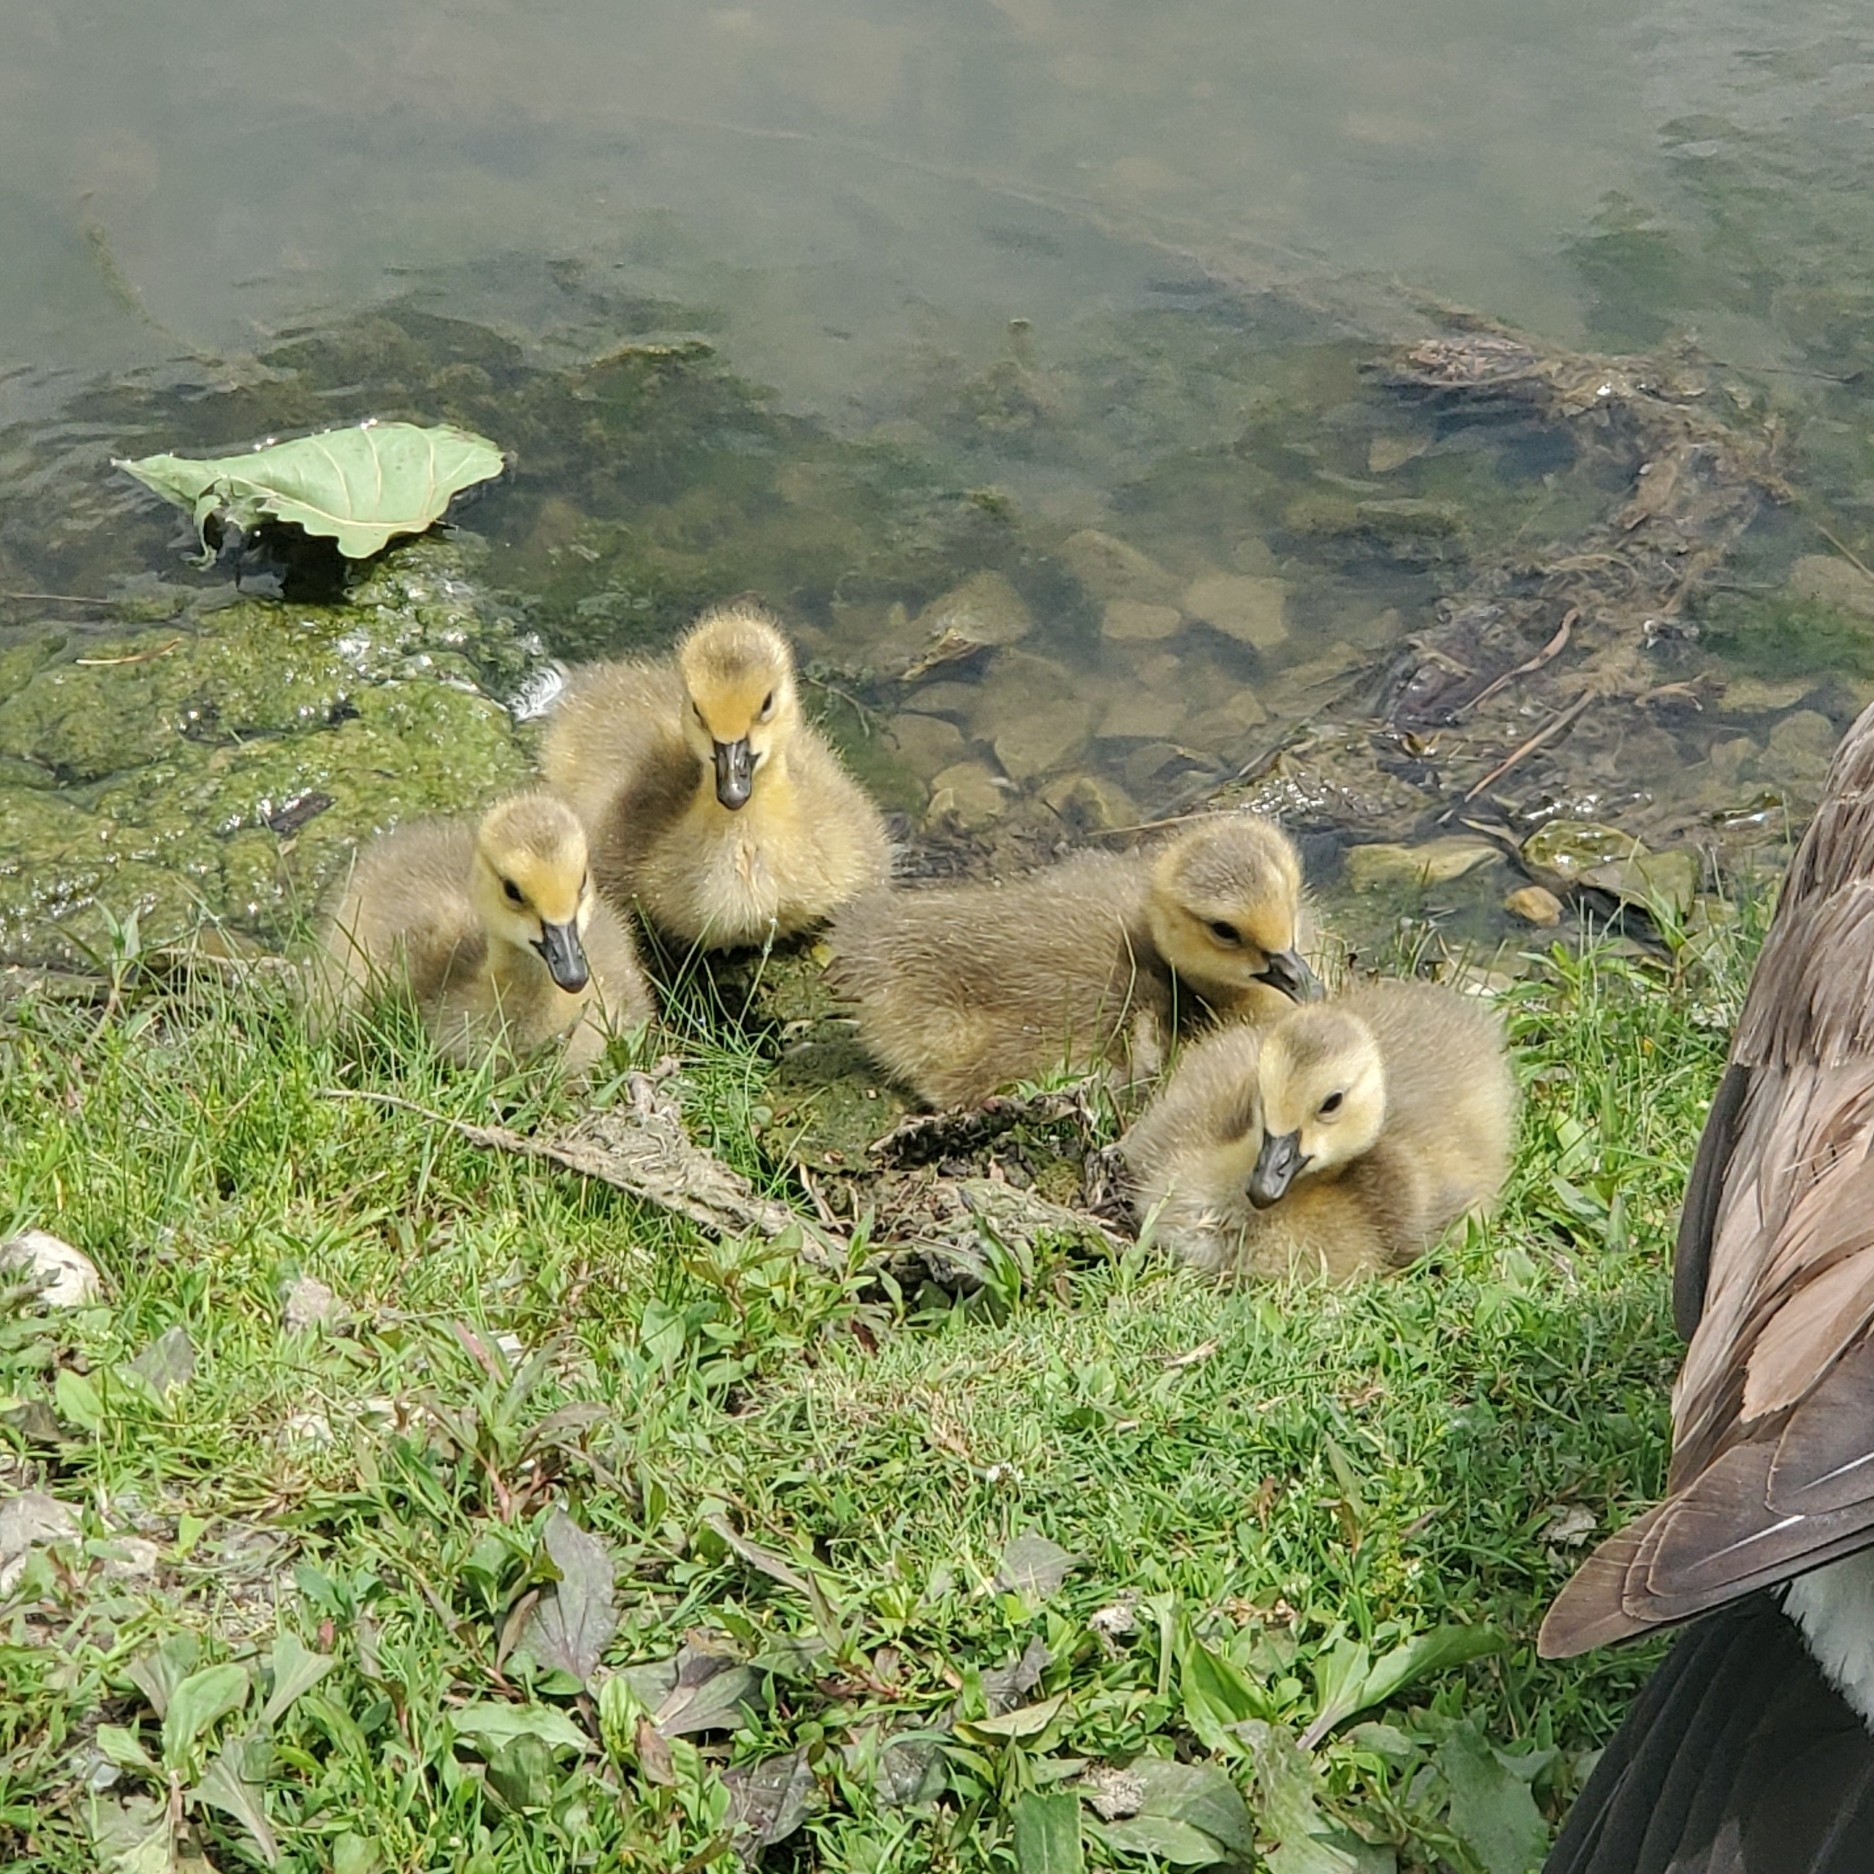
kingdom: Animalia
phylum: Chordata
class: Aves
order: Anseriformes
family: Anatidae
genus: Branta
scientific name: Branta canadensis
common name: Canada goose
